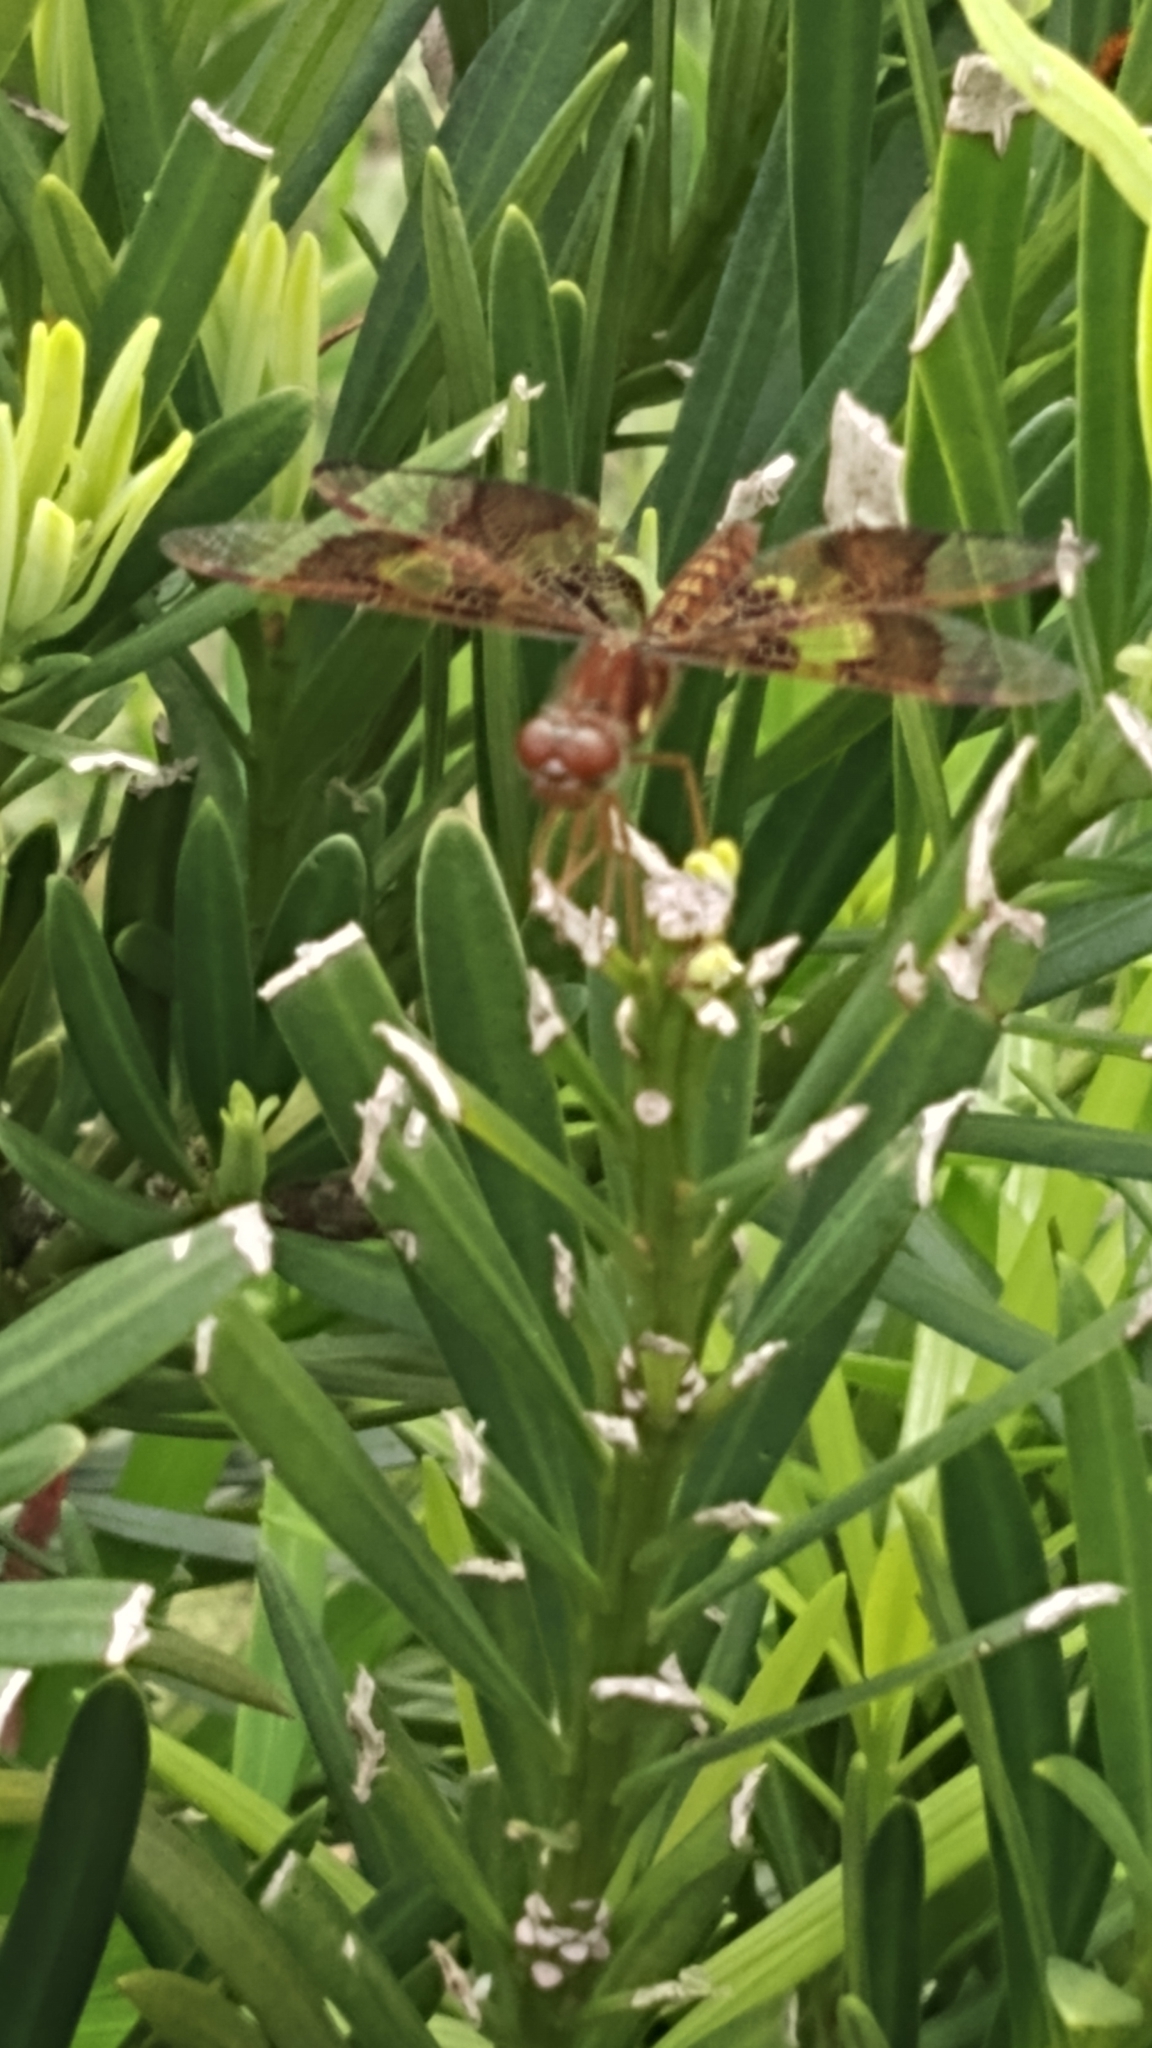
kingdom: Animalia
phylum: Arthropoda
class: Insecta
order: Odonata
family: Libellulidae
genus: Perithemis
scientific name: Perithemis tenera
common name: Eastern amberwing
